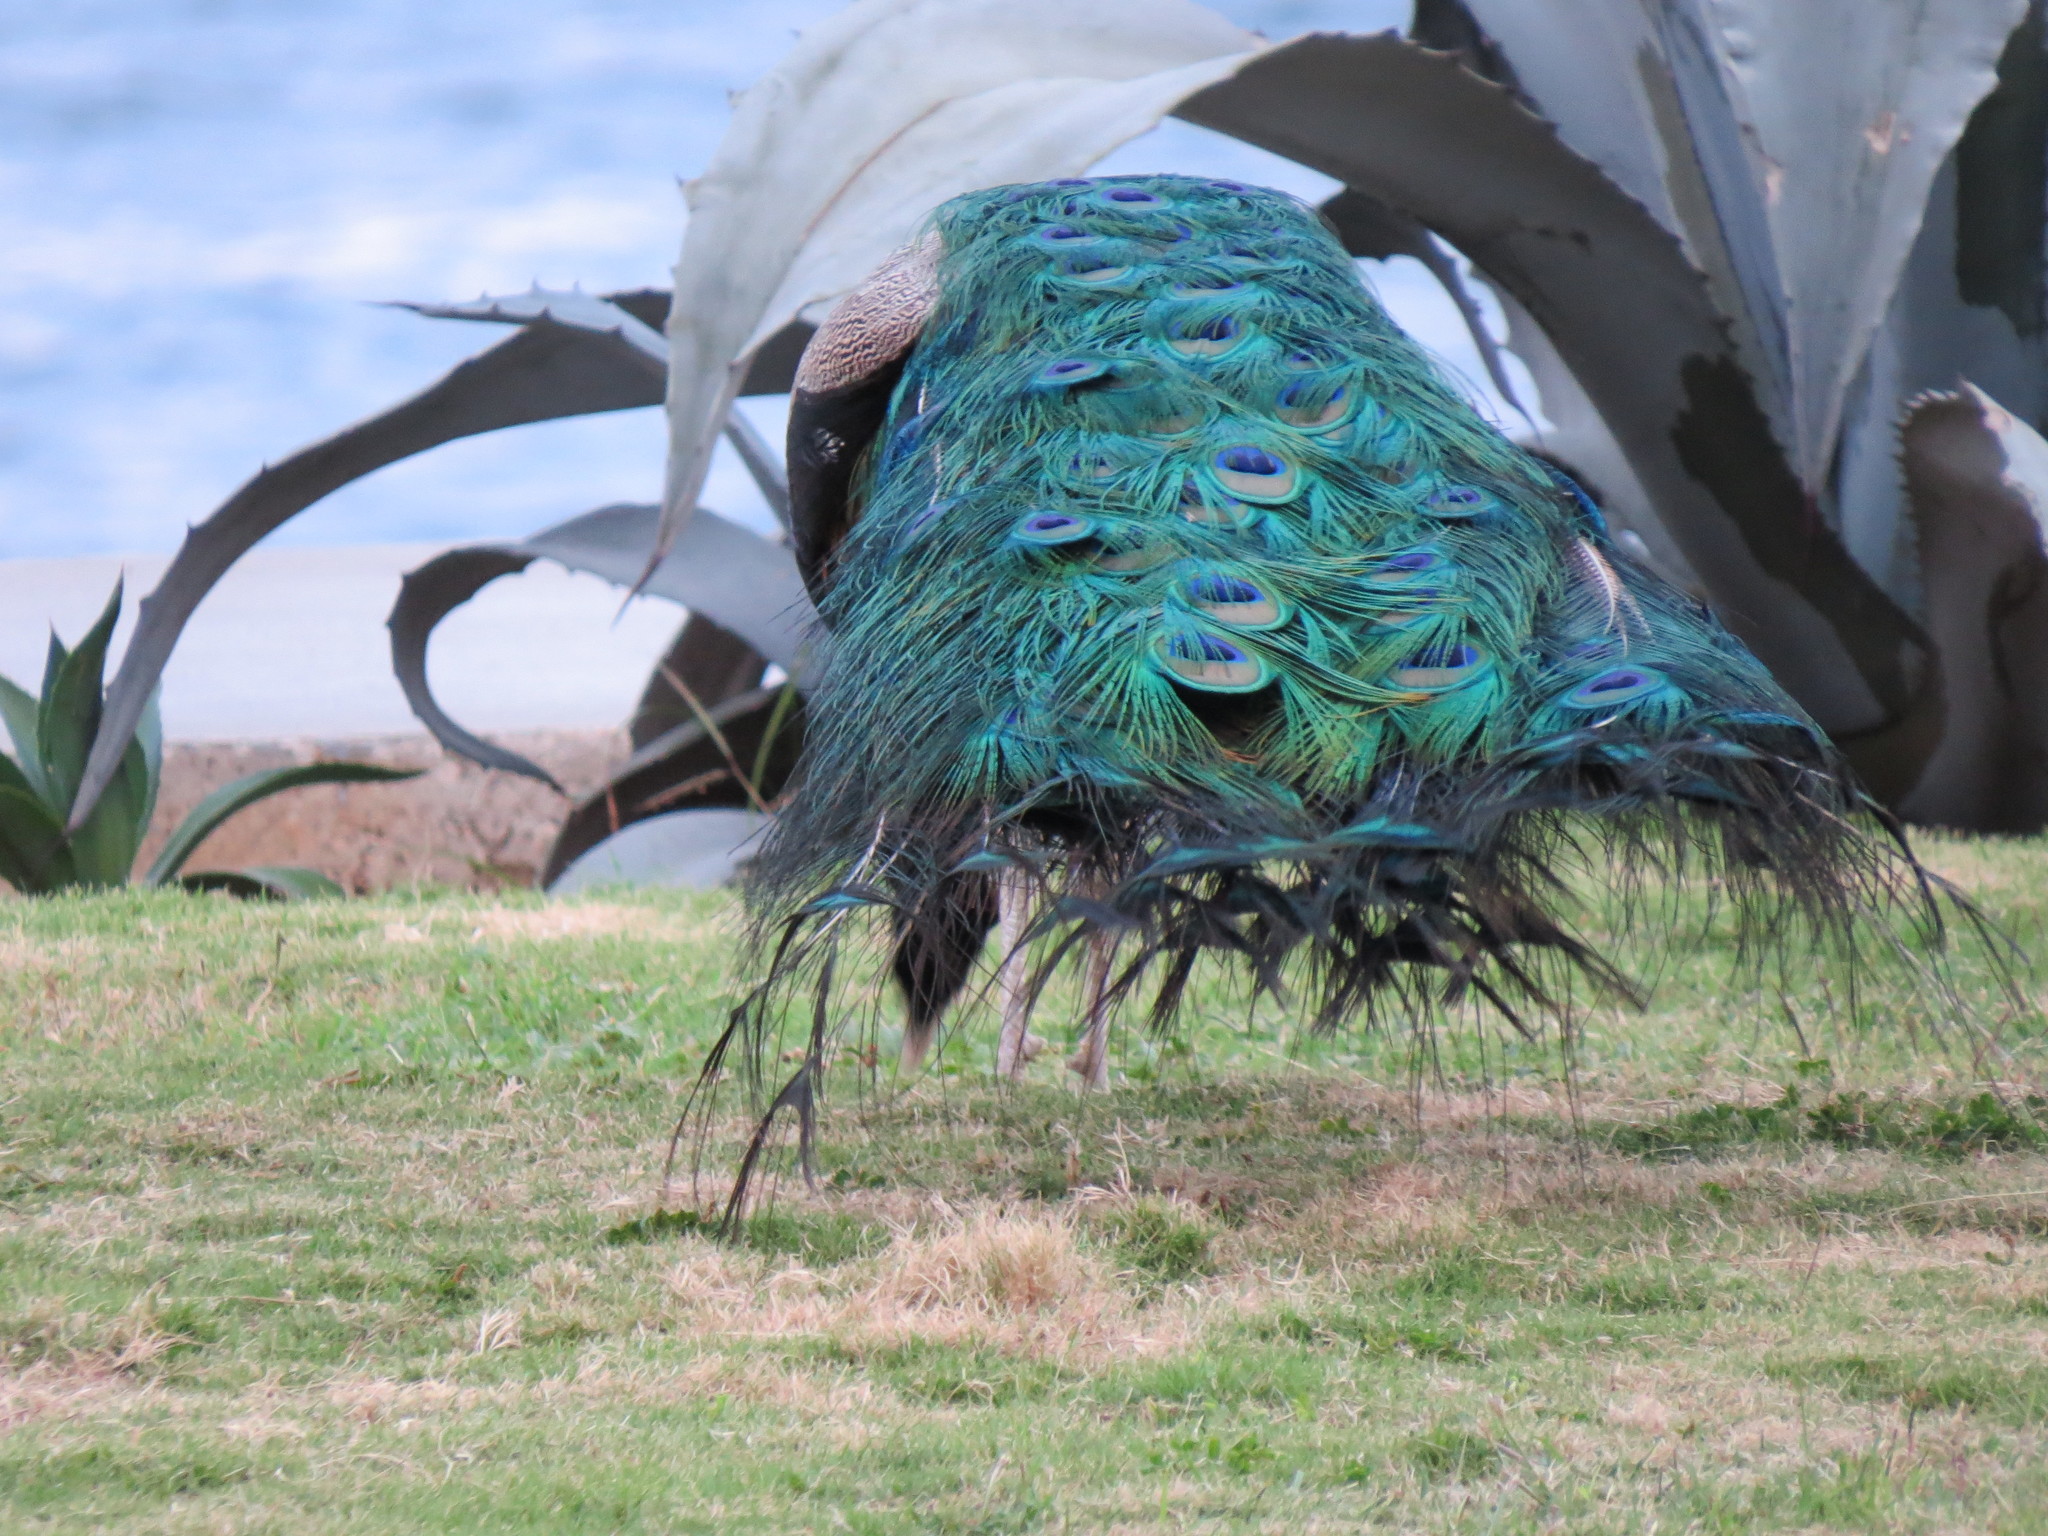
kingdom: Animalia
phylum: Chordata
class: Aves
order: Galliformes
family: Phasianidae
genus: Pavo
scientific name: Pavo cristatus
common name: Indian peafowl
